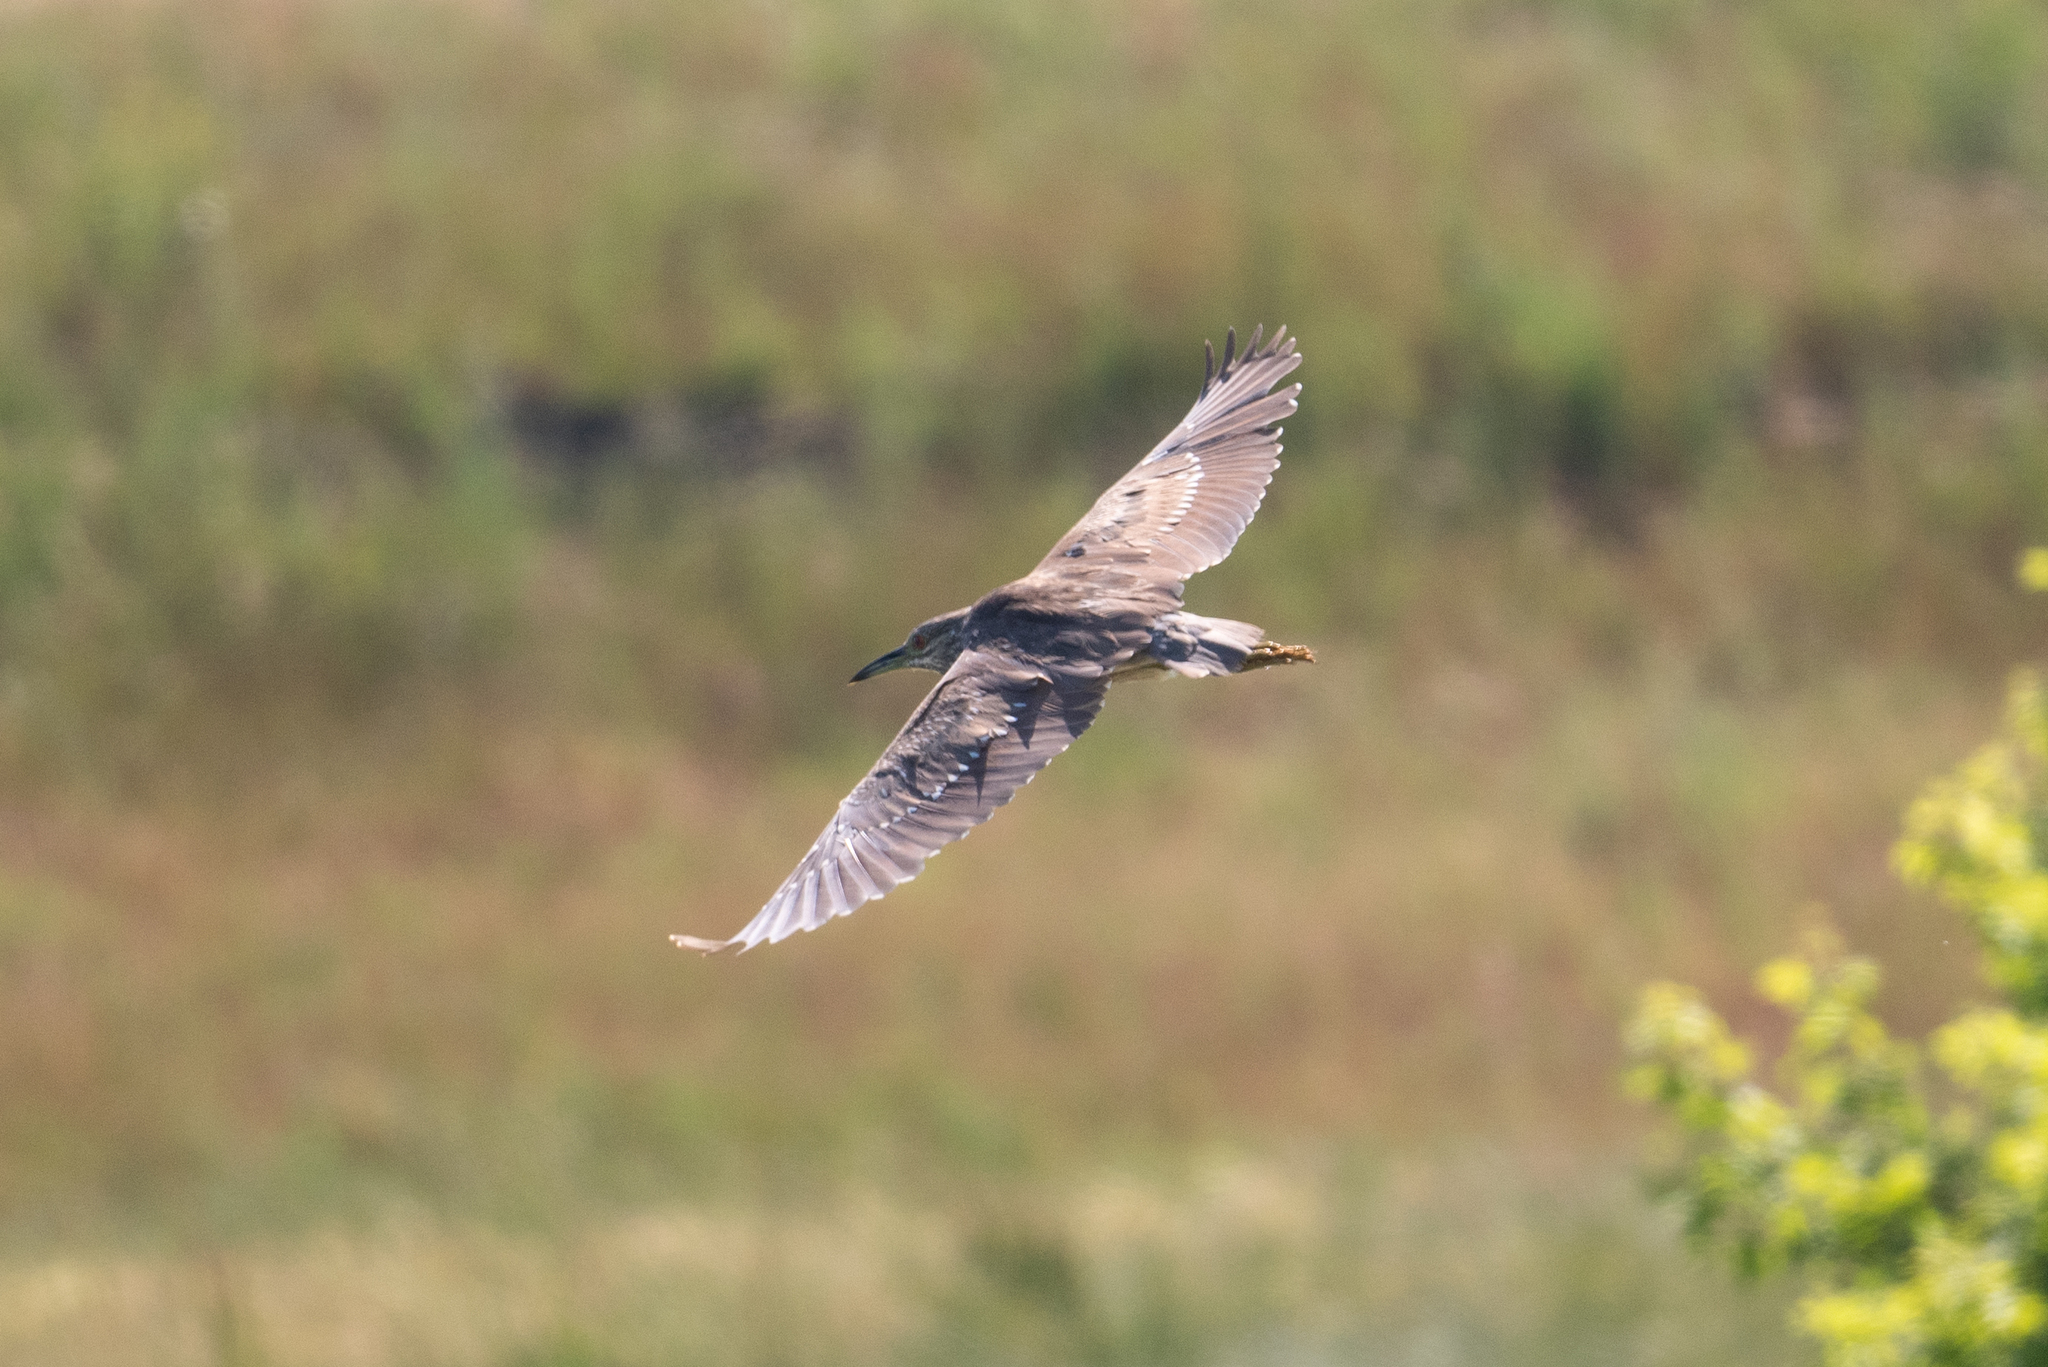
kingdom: Animalia
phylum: Chordata
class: Aves
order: Pelecaniformes
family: Ardeidae
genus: Nycticorax
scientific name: Nycticorax nycticorax
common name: Black-crowned night heron
